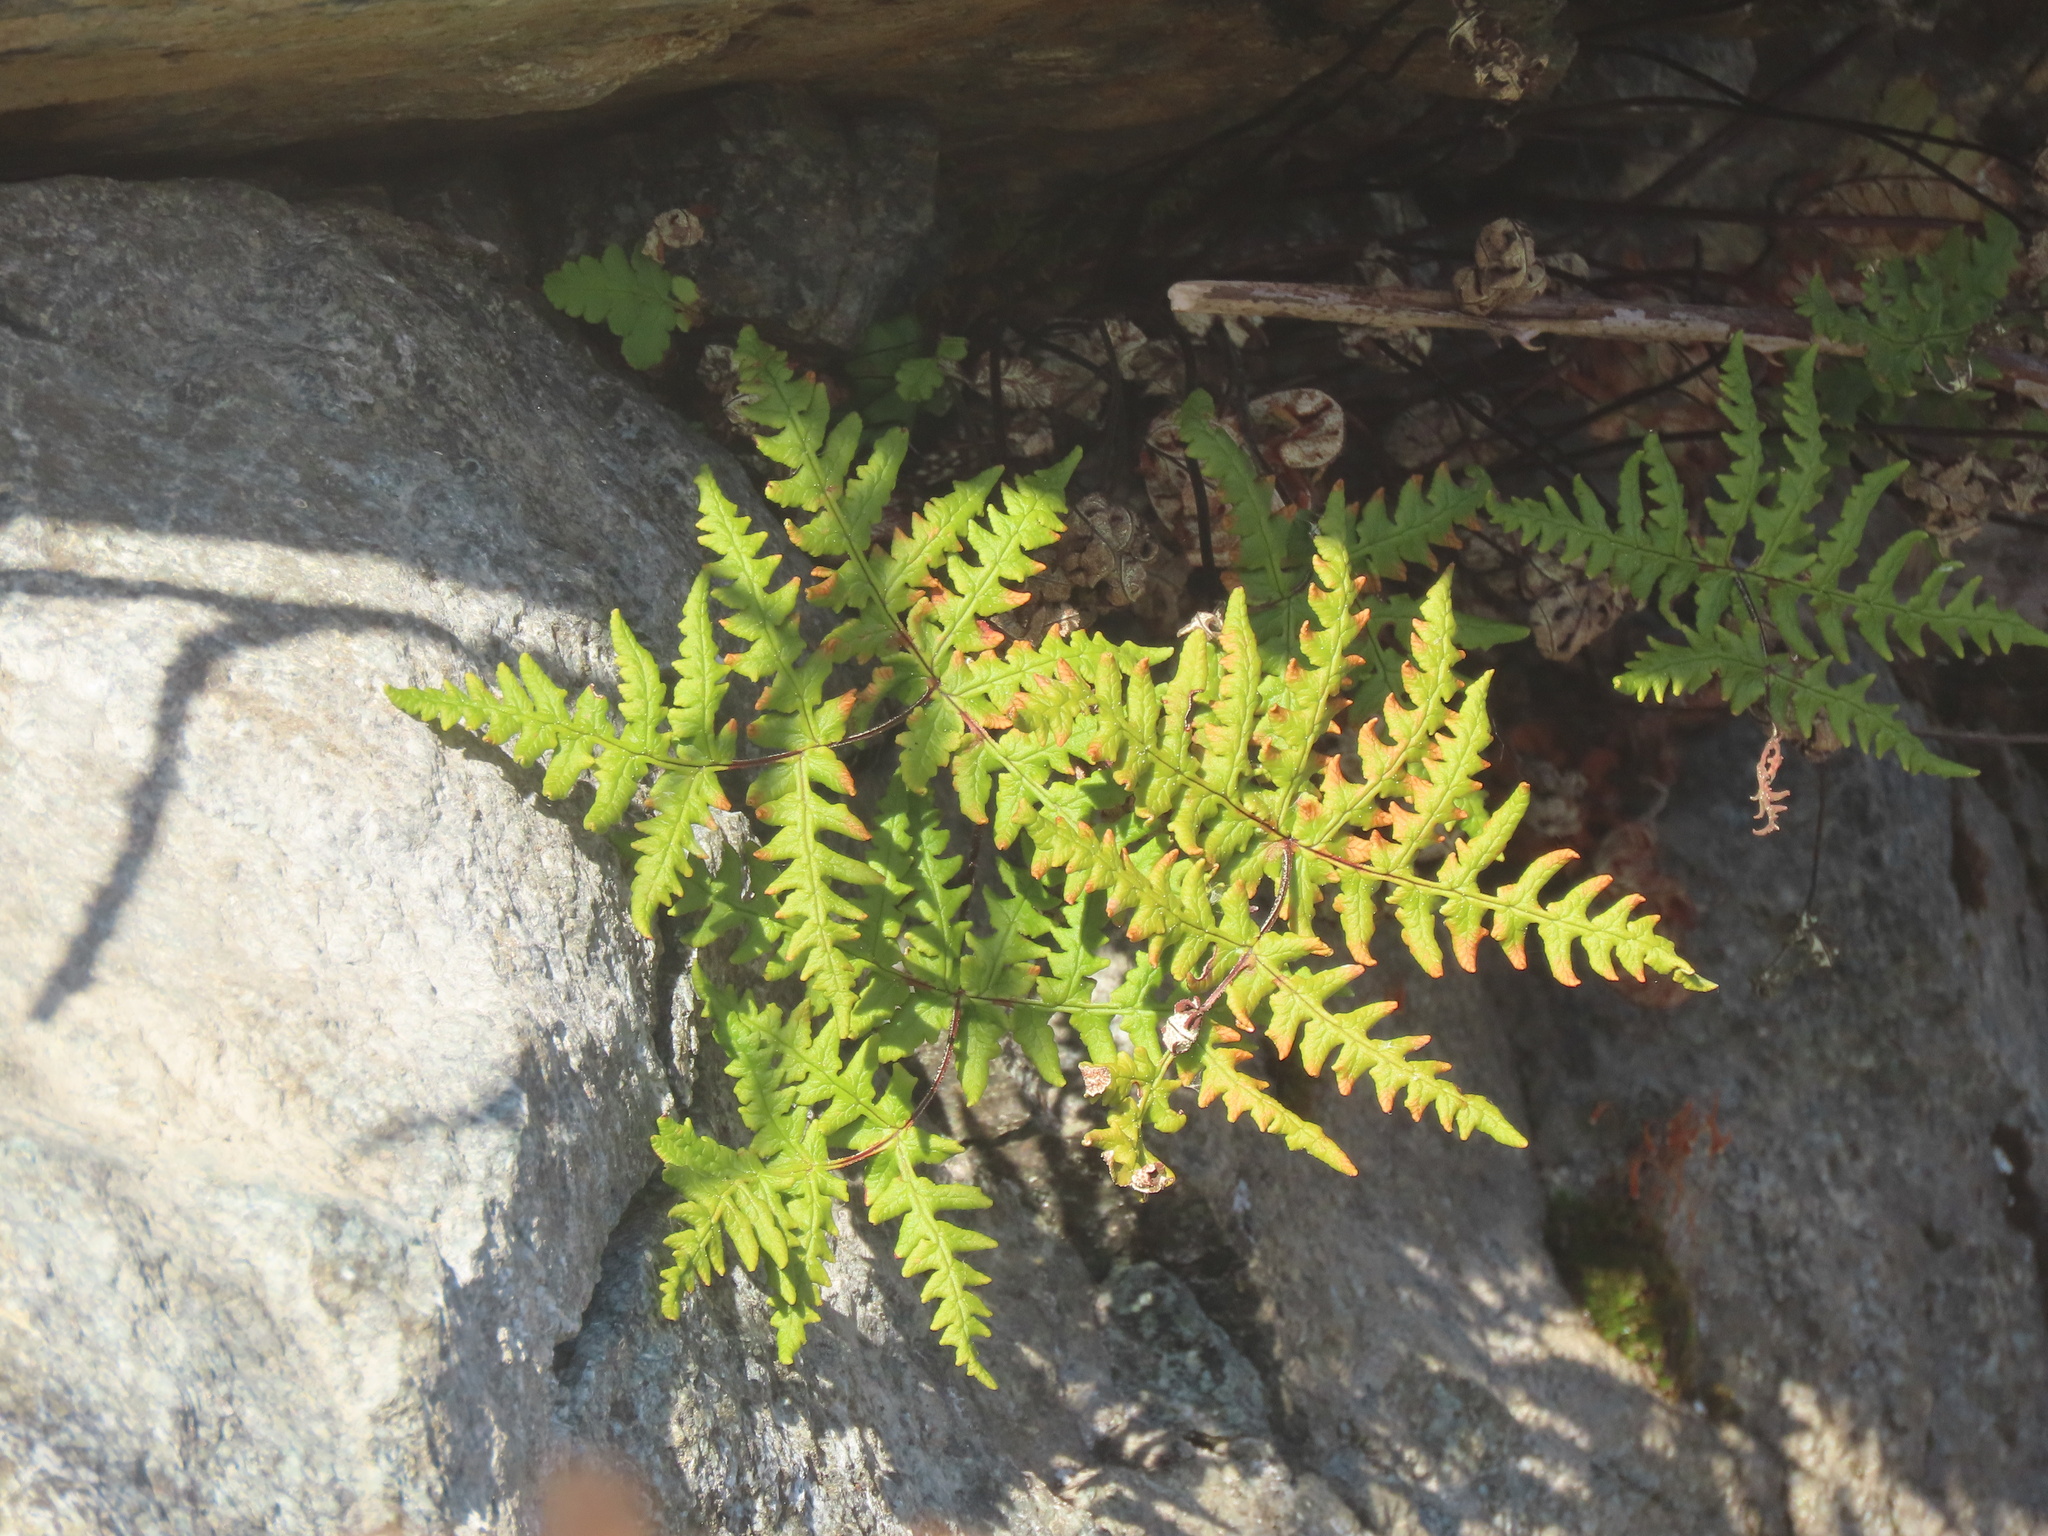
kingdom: Plantae
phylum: Tracheophyta
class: Polypodiopsida
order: Polypodiales
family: Pteridaceae
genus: Pentagramma
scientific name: Pentagramma triangularis
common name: Gold fern
